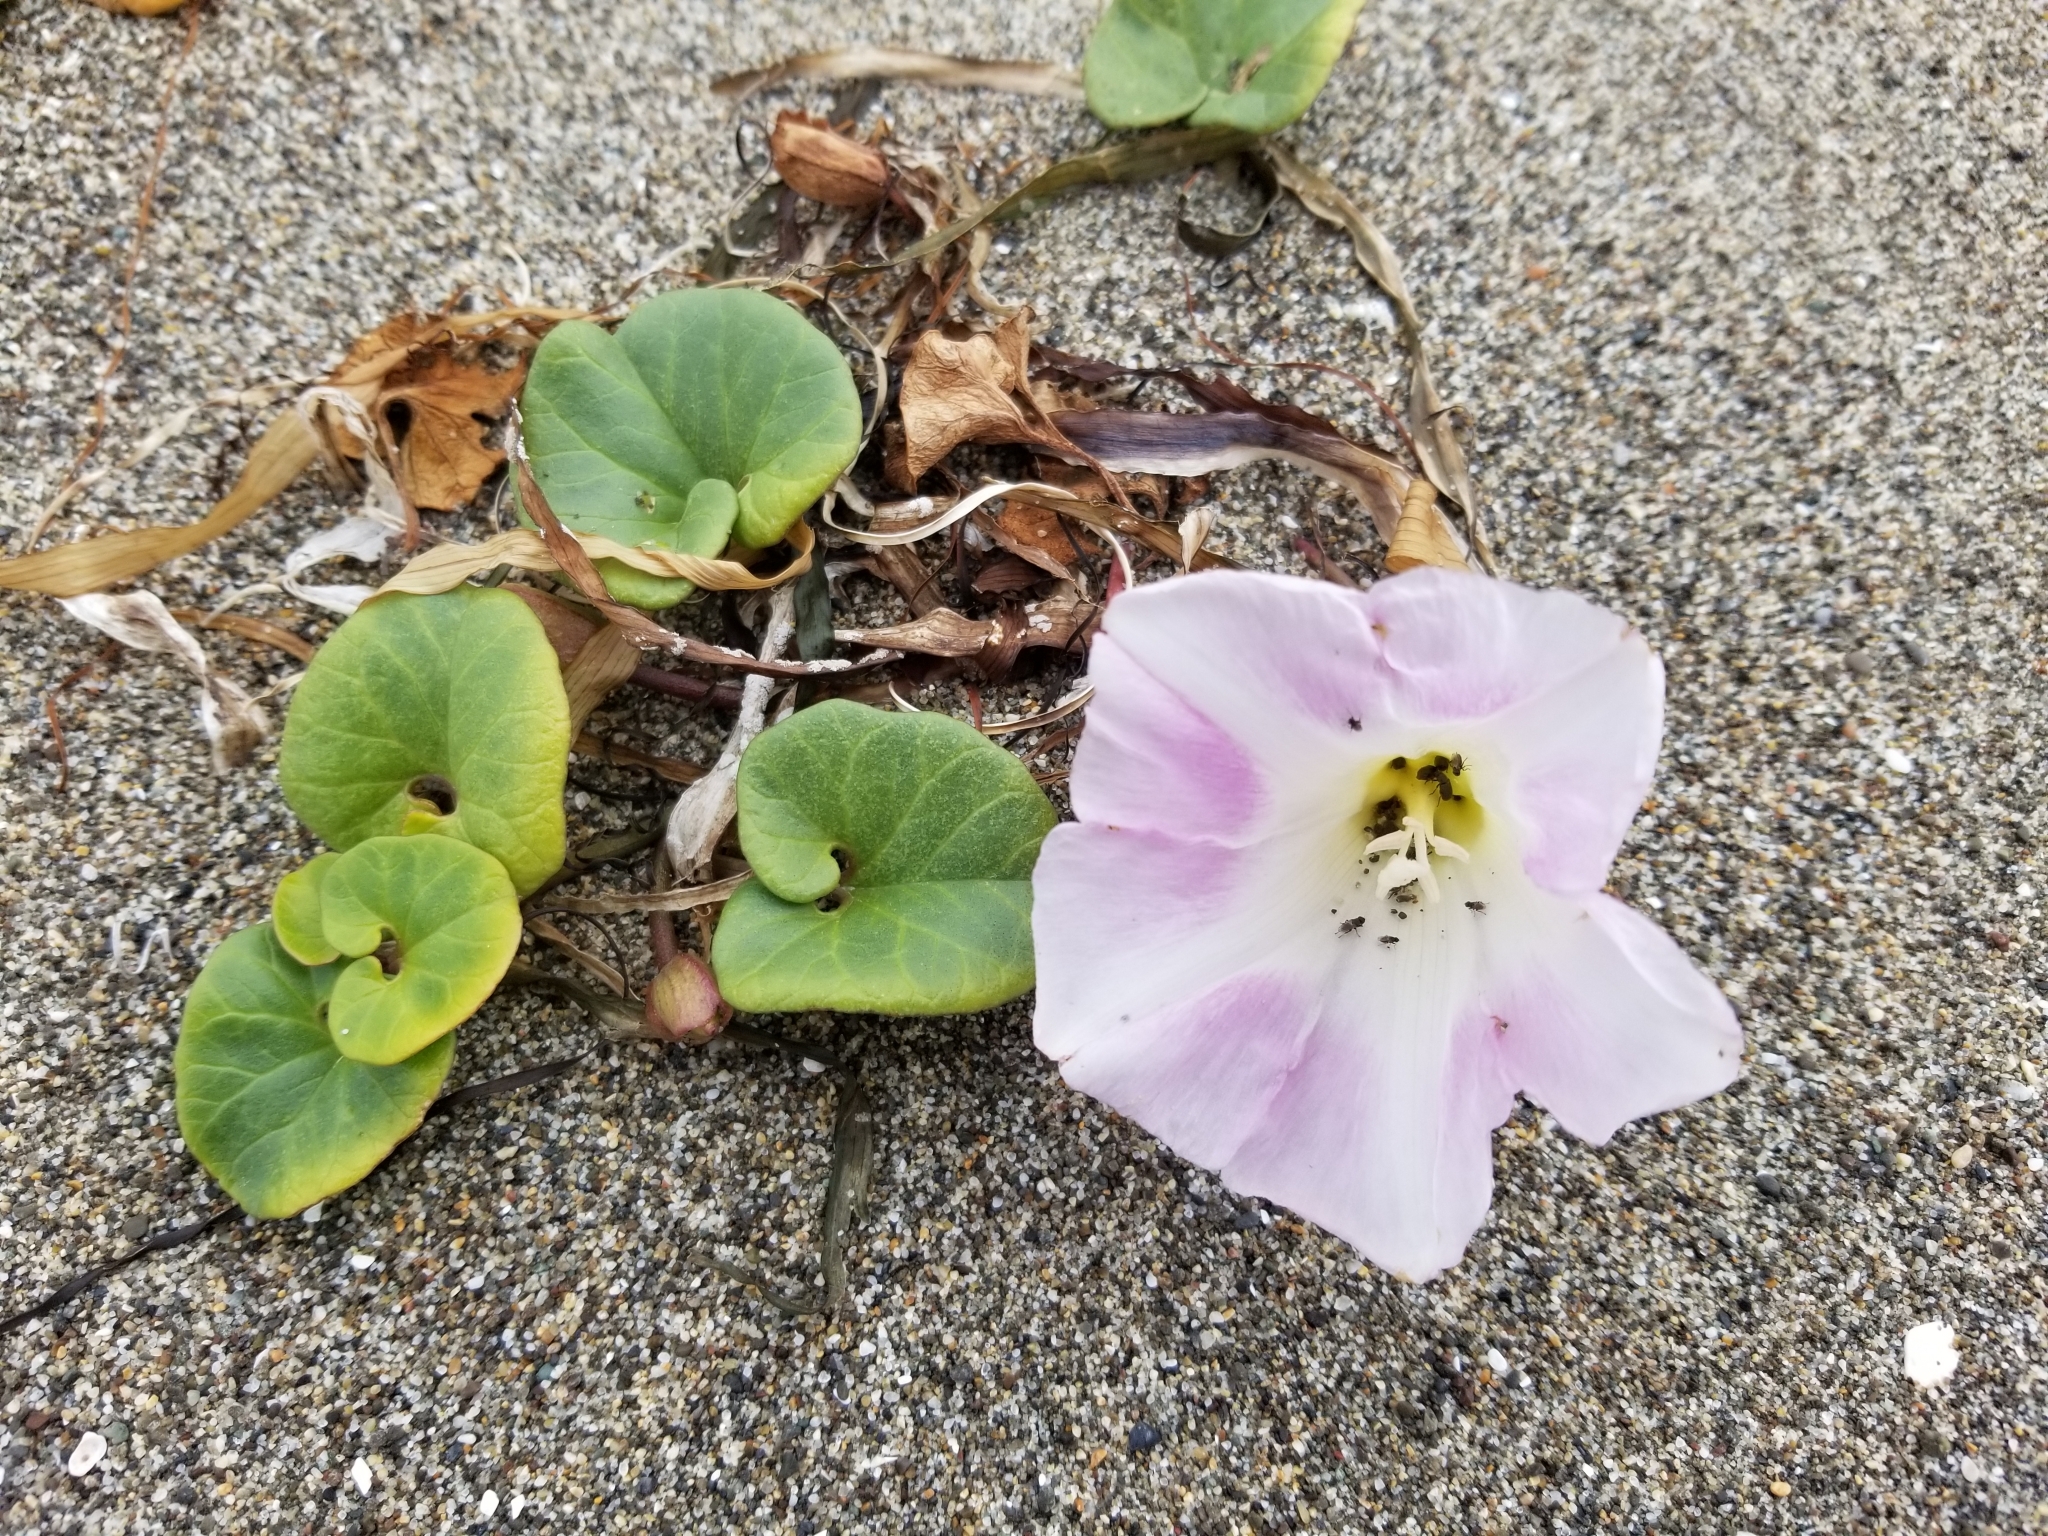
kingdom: Plantae
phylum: Tracheophyta
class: Magnoliopsida
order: Solanales
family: Convolvulaceae
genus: Calystegia
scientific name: Calystegia soldanella
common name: Sea bindweed
